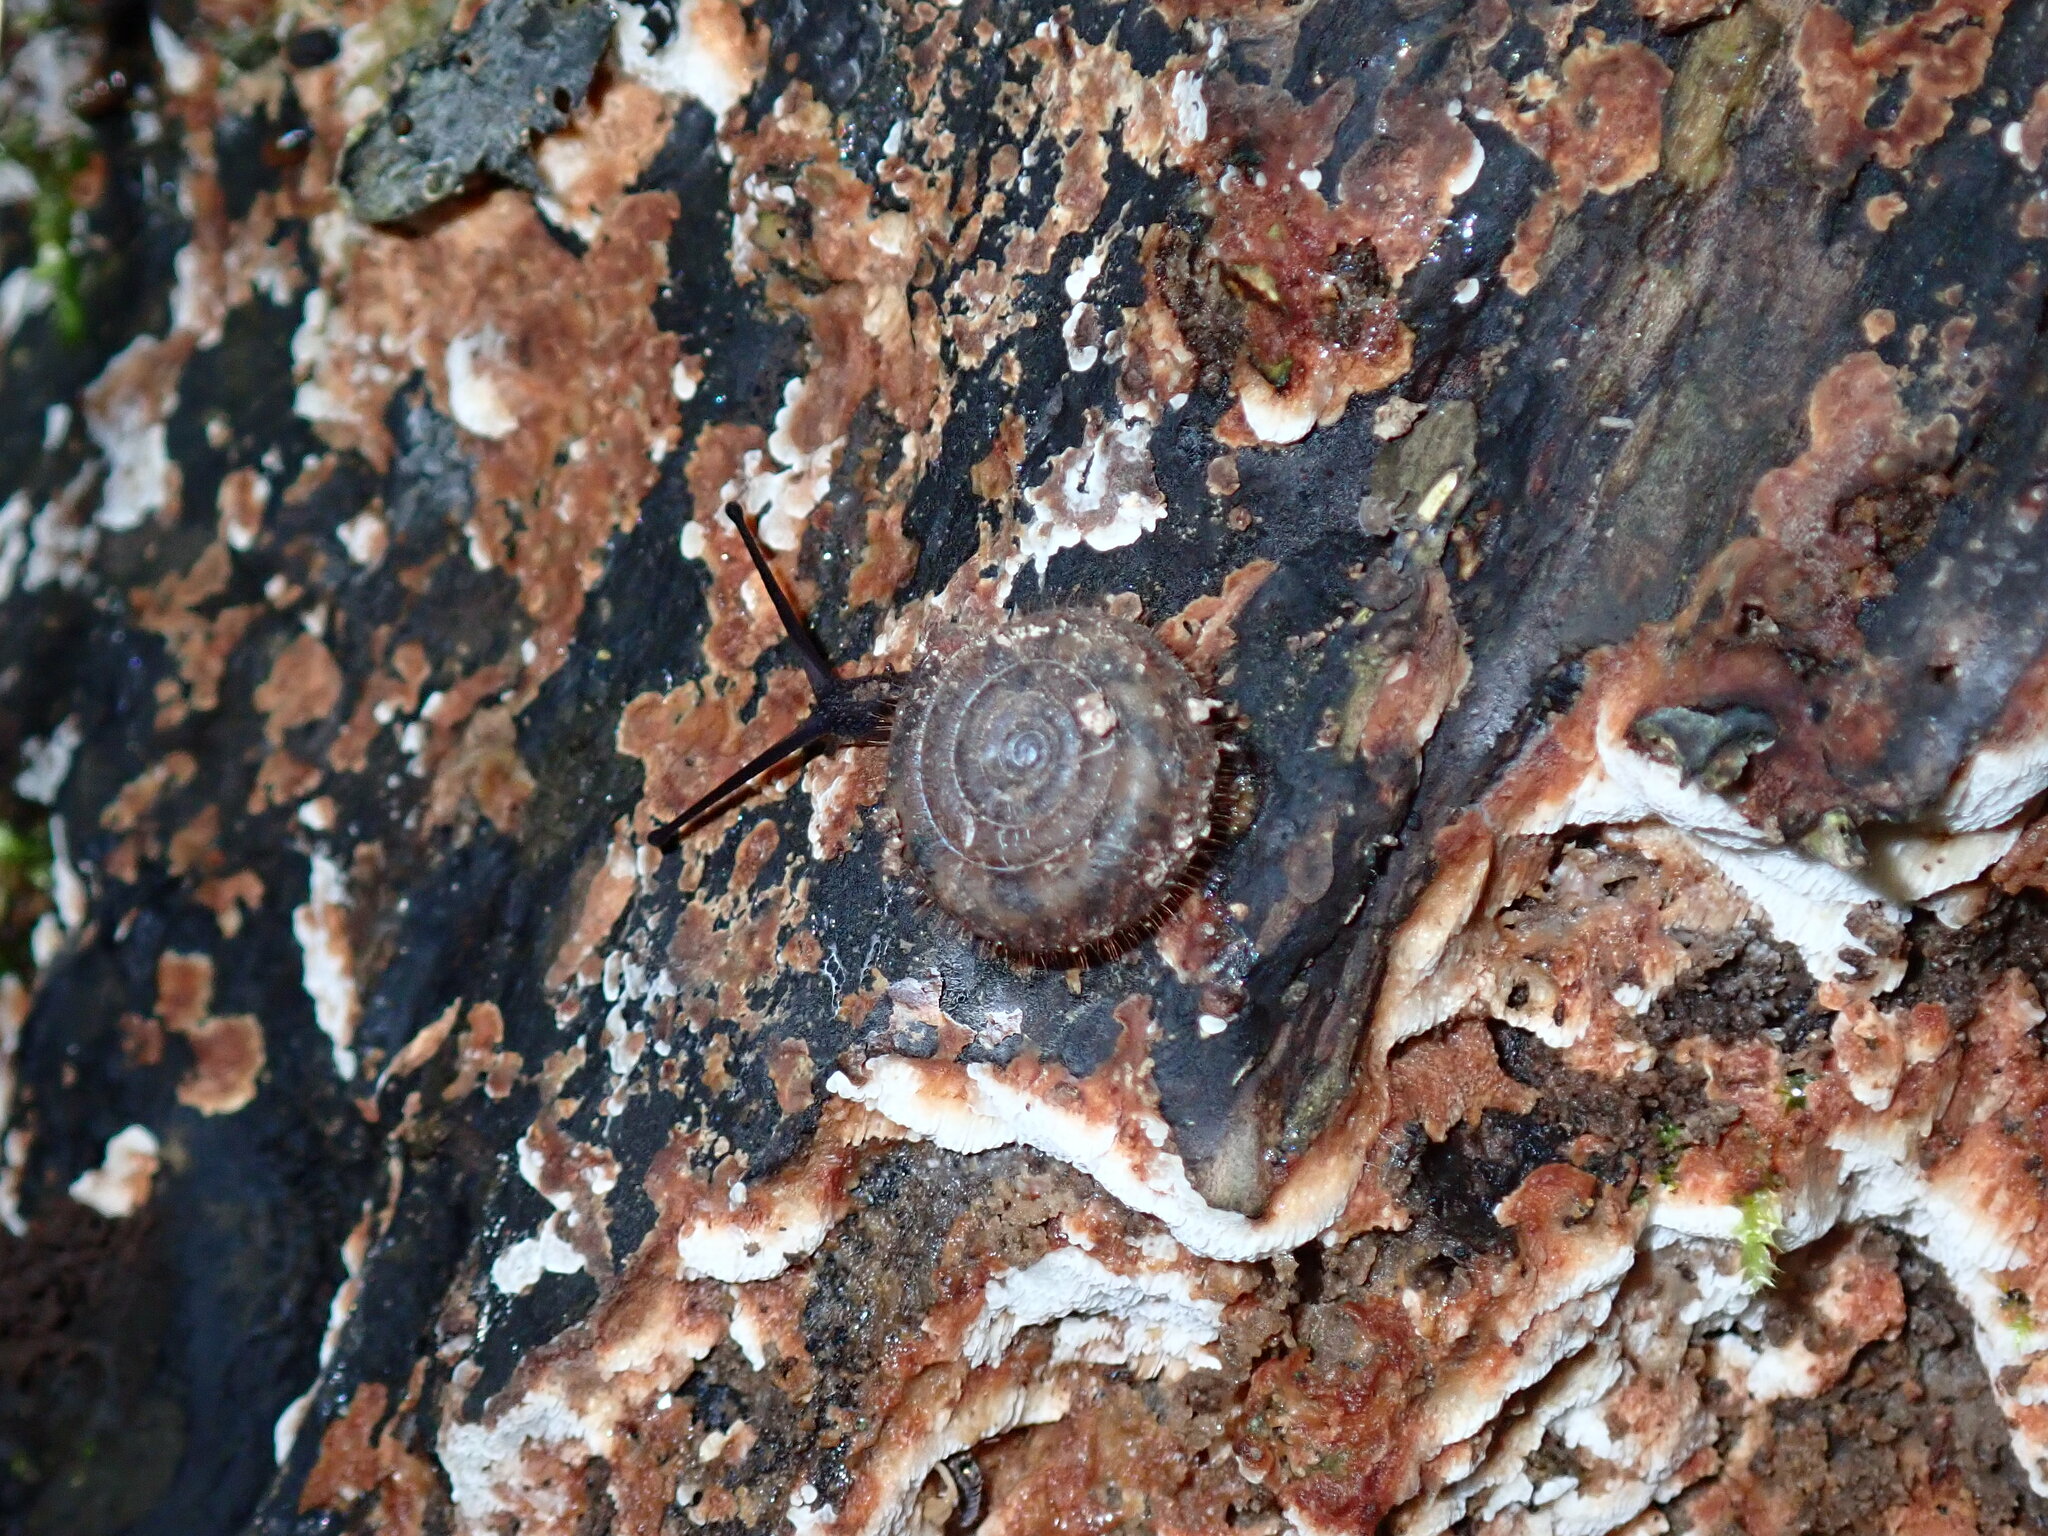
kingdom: Animalia
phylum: Mollusca
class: Gastropoda
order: Stylommatophora
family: Helicodontidae
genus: Helicodonta
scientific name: Helicodonta obvoluta
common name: Cheese snail
